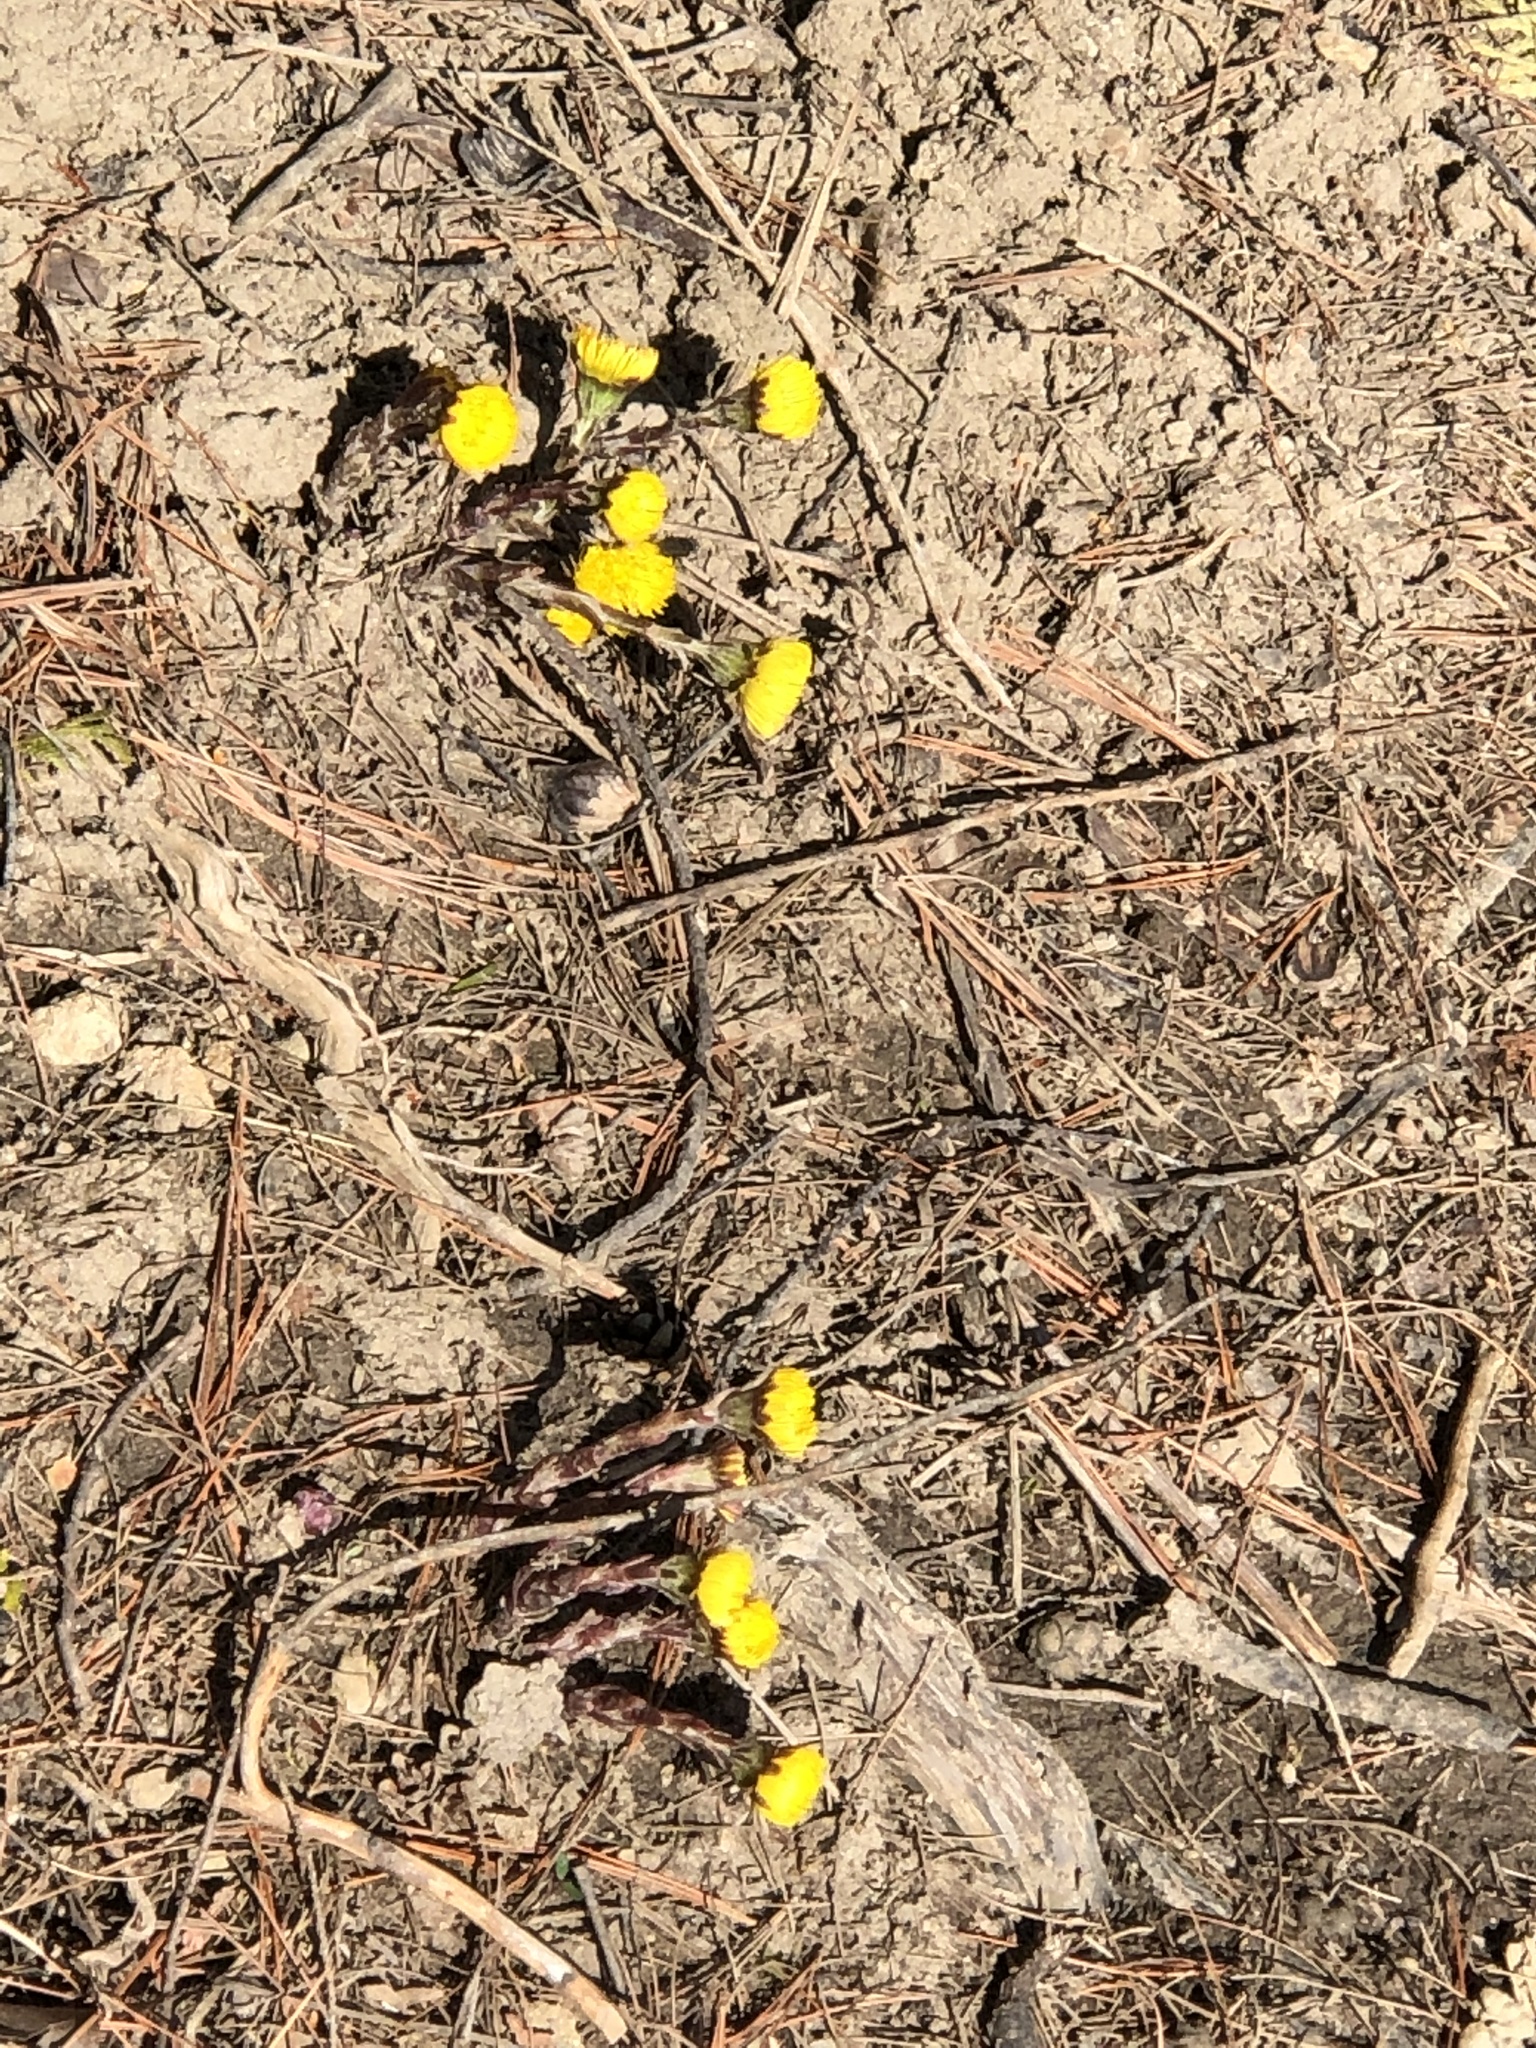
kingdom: Plantae
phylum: Tracheophyta
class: Magnoliopsida
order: Asterales
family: Asteraceae
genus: Tussilago
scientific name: Tussilago farfara
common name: Coltsfoot
